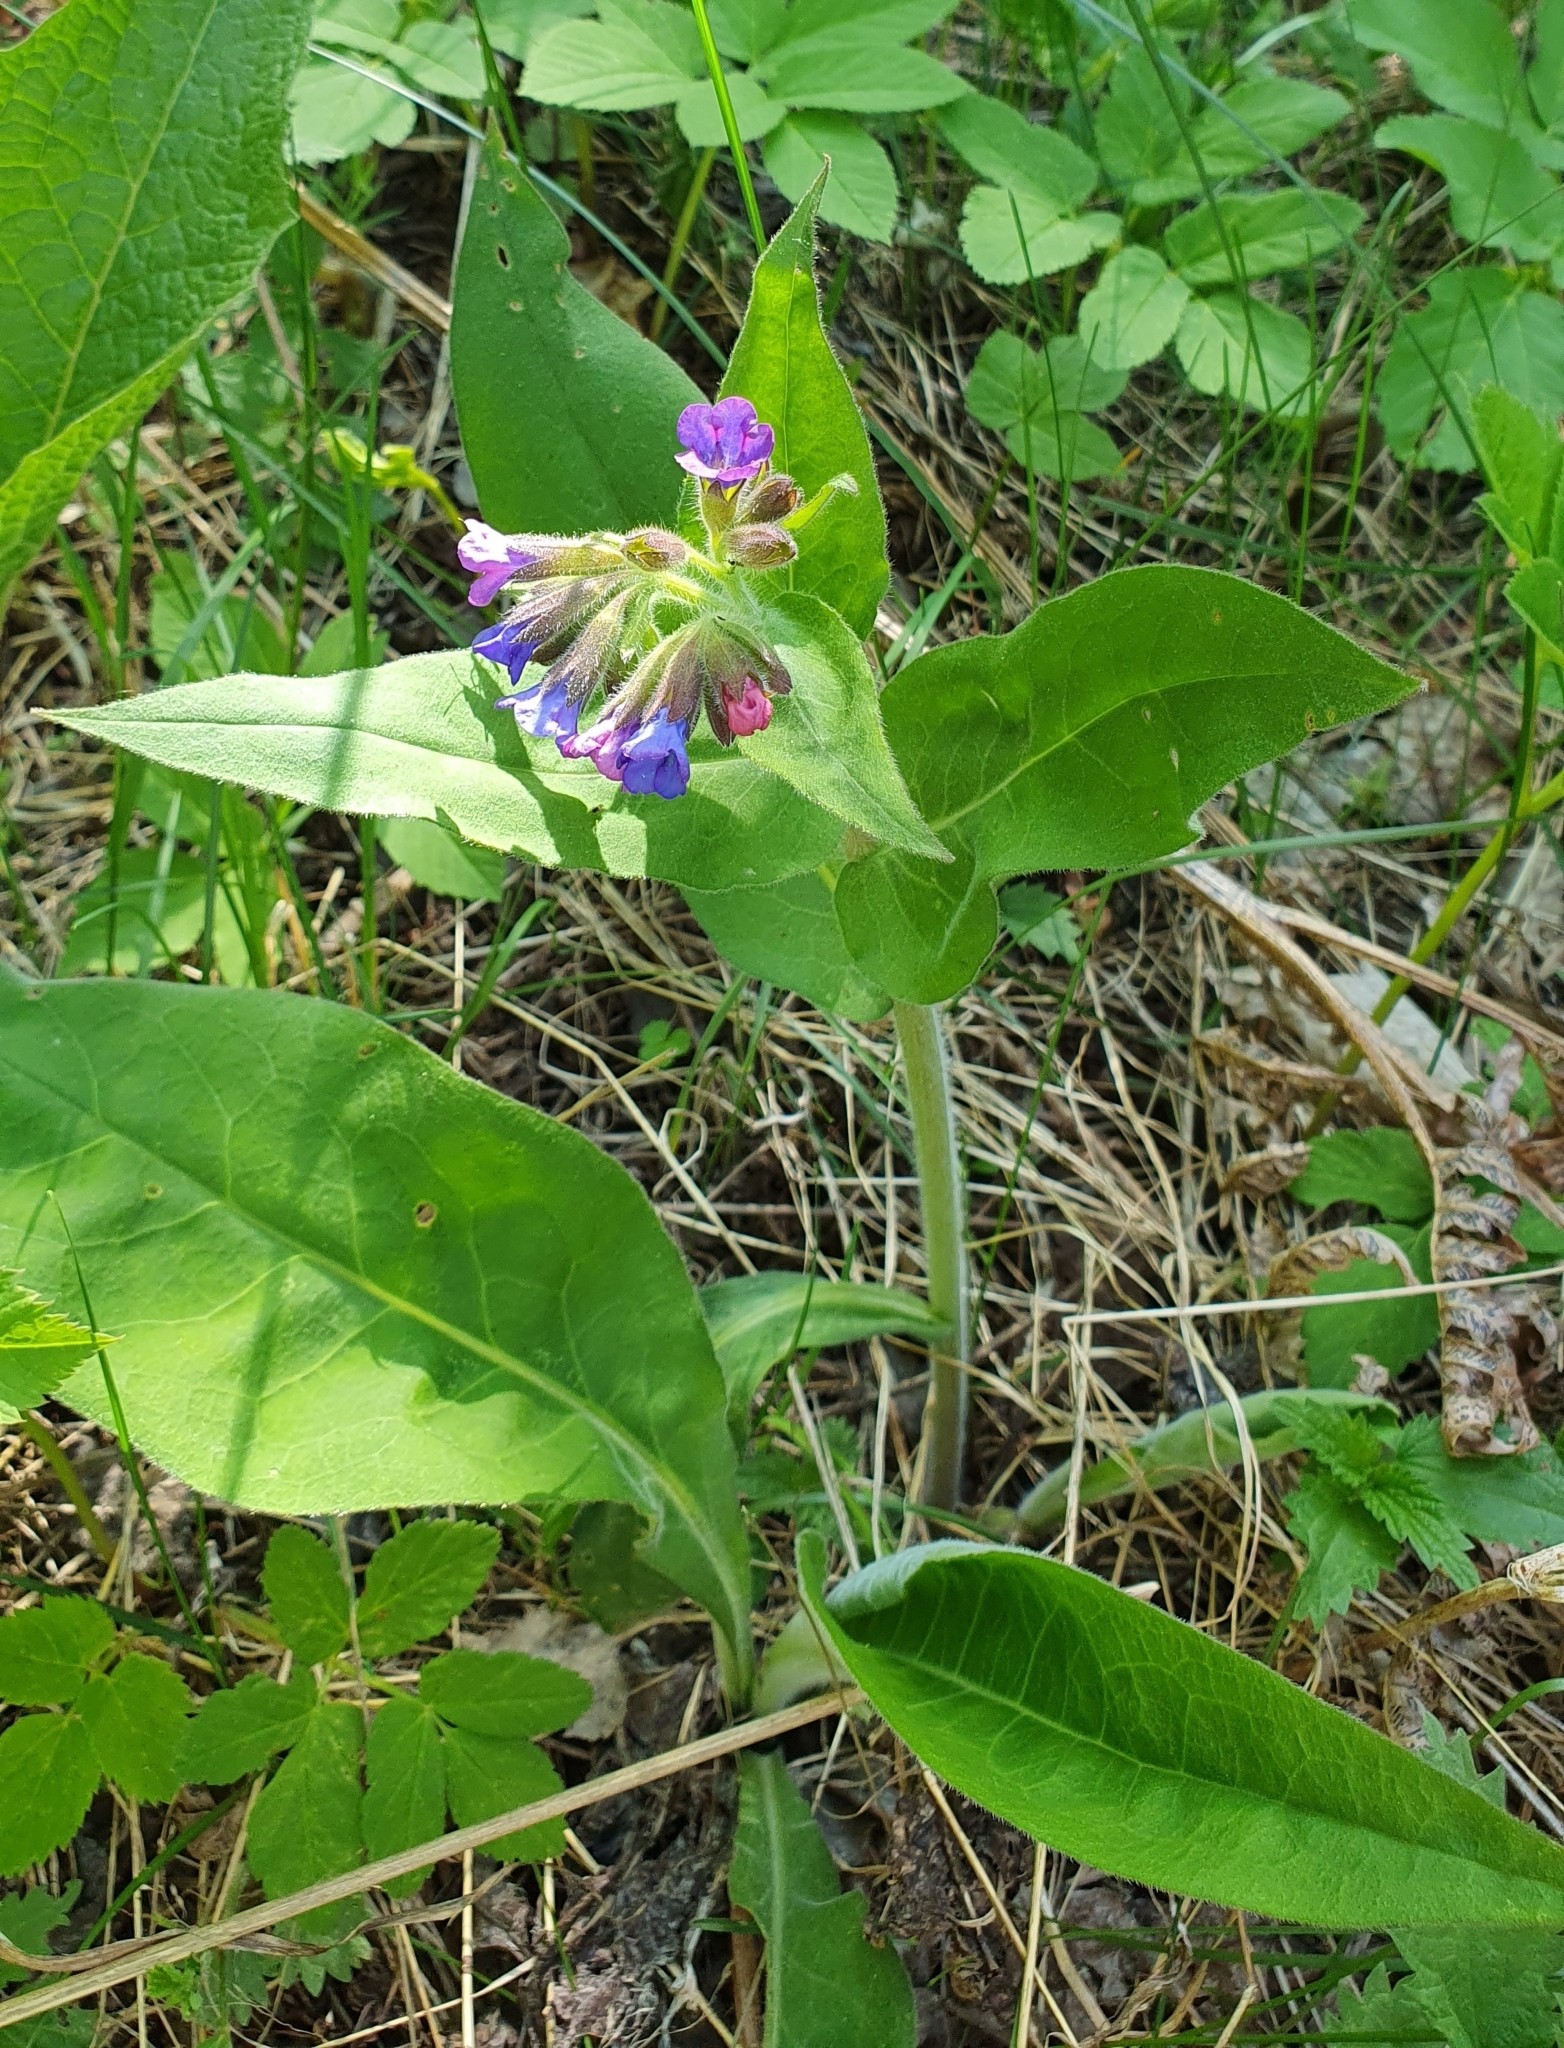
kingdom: Plantae
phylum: Tracheophyta
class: Magnoliopsida
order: Boraginales
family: Boraginaceae
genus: Pulmonaria
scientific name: Pulmonaria mollis
